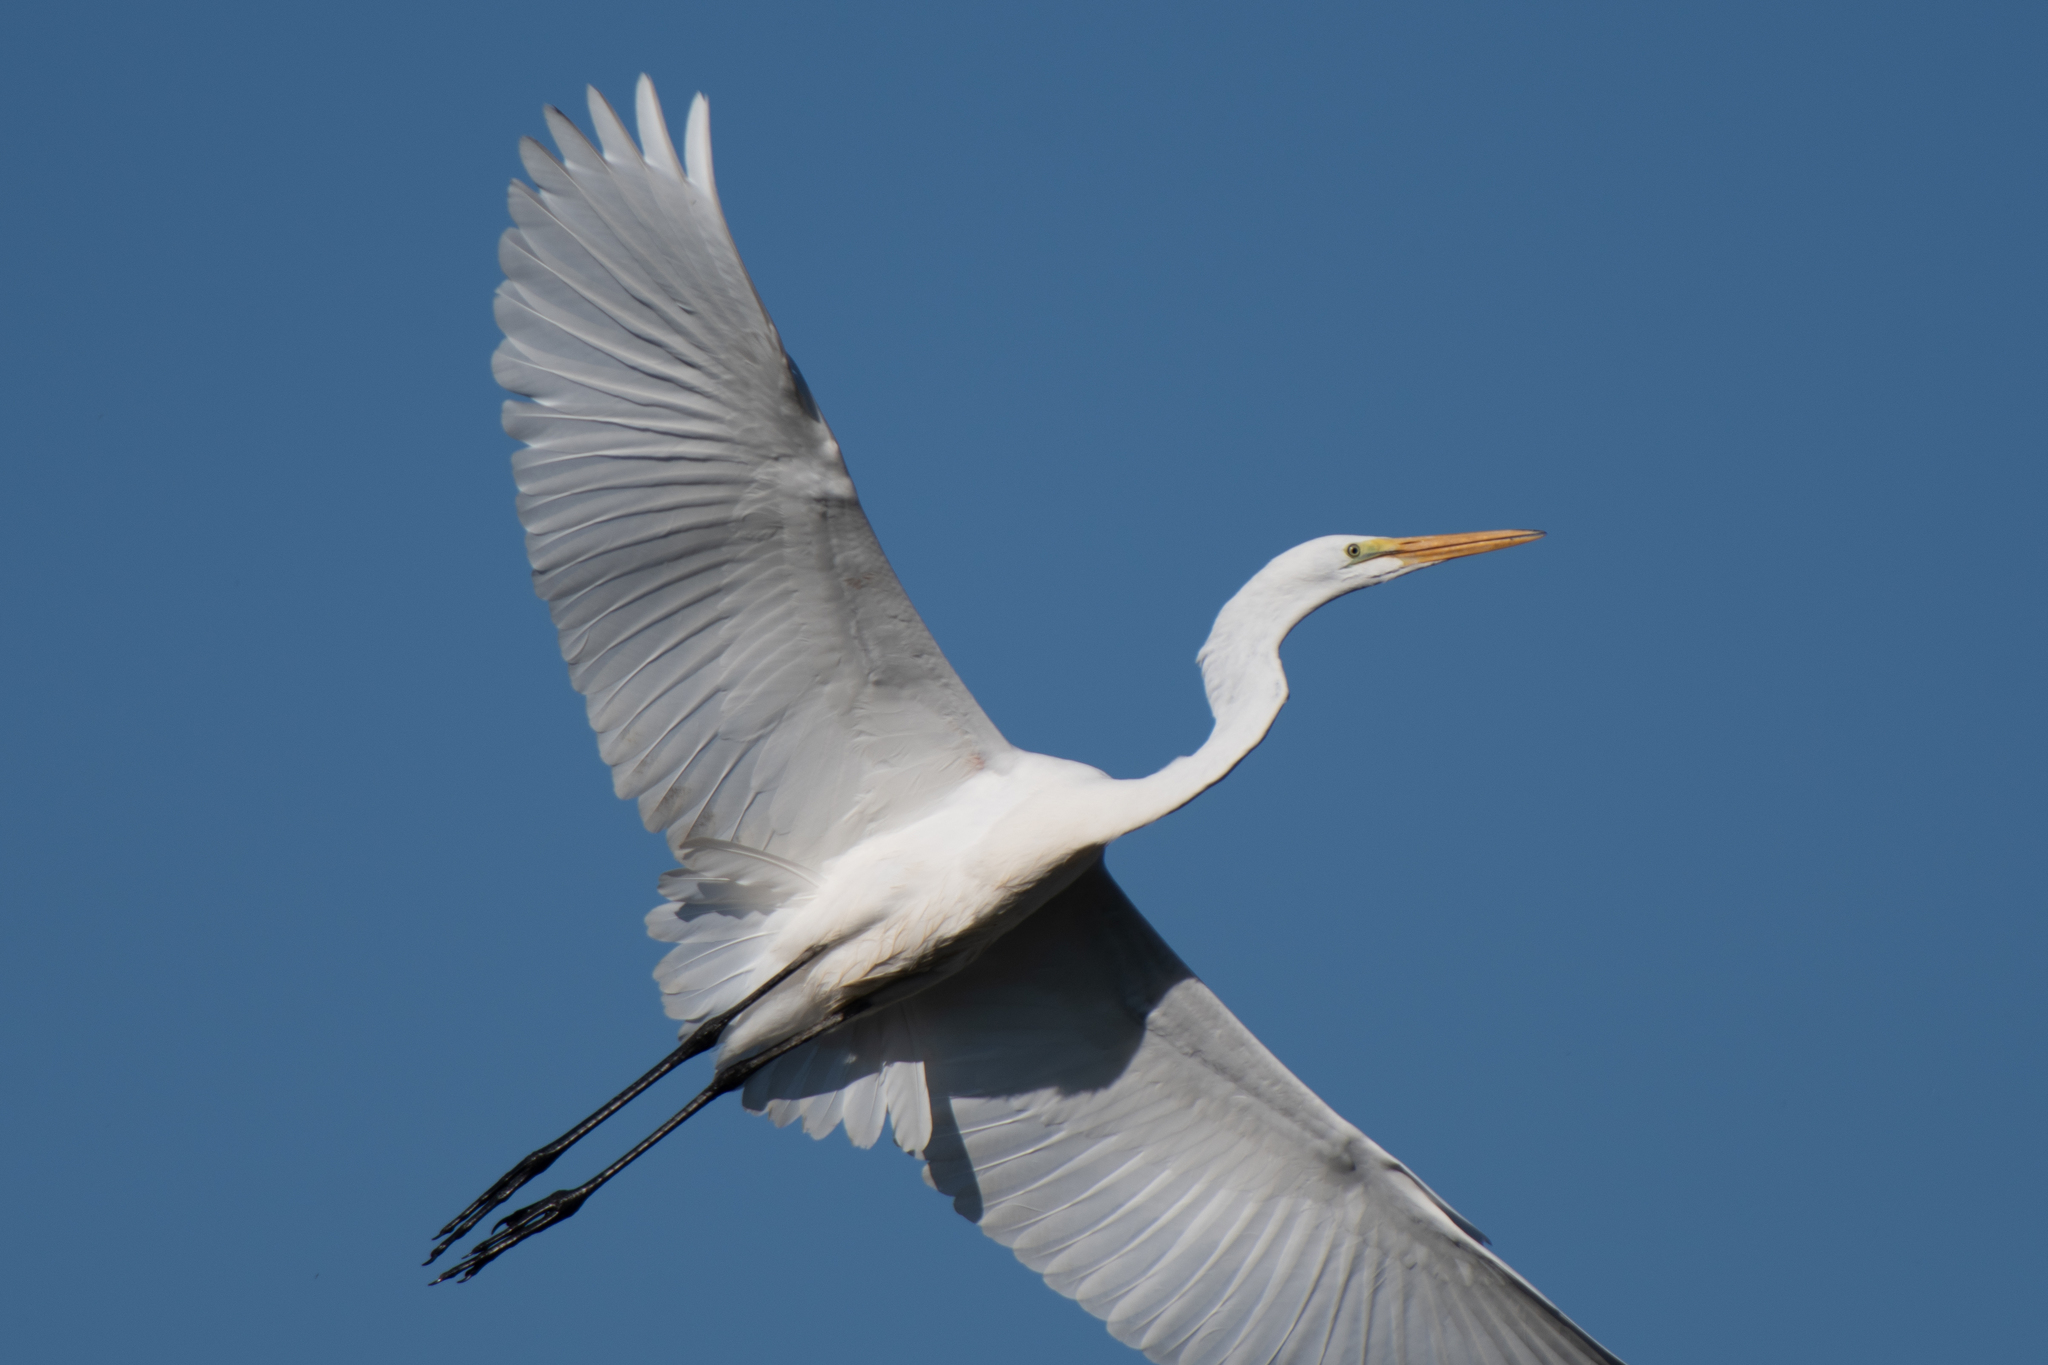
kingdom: Animalia
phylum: Chordata
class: Aves
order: Pelecaniformes
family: Ardeidae
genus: Ardea
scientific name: Ardea alba
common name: Great egret
